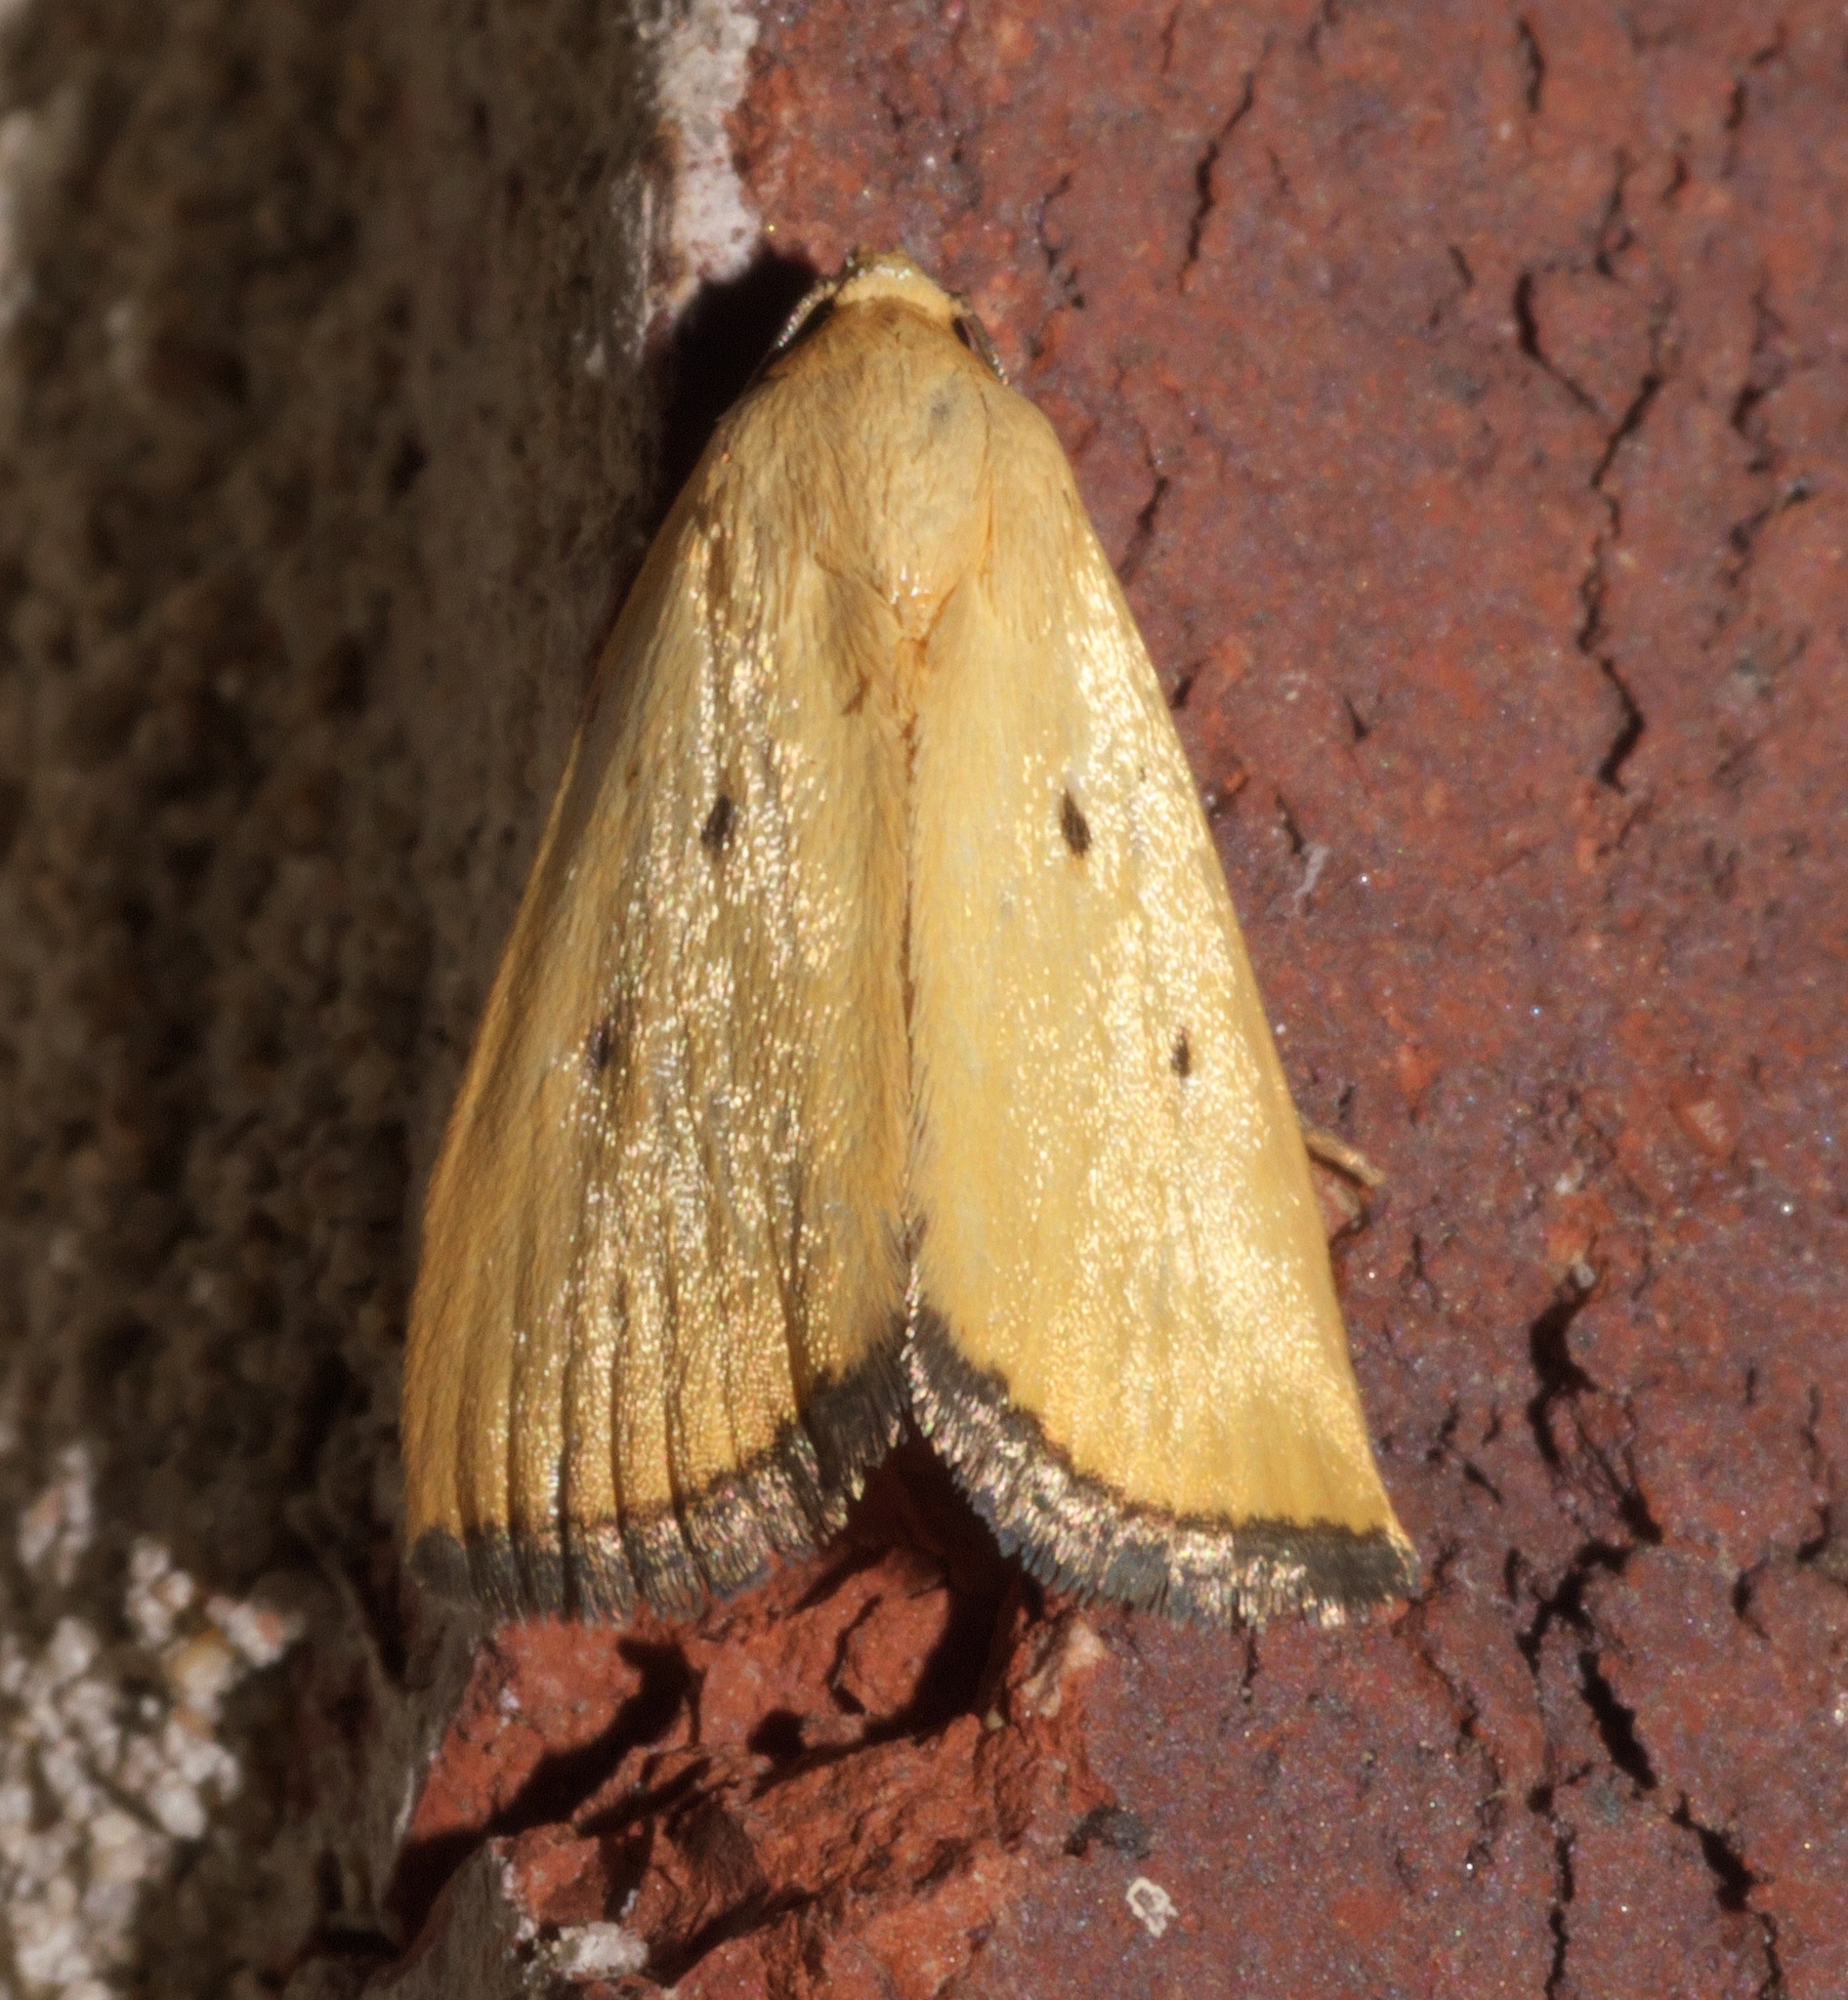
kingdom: Animalia
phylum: Arthropoda
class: Insecta
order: Lepidoptera
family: Noctuidae
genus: Marimatha
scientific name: Marimatha nigrofimbria
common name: Black-bordered lemon moth
